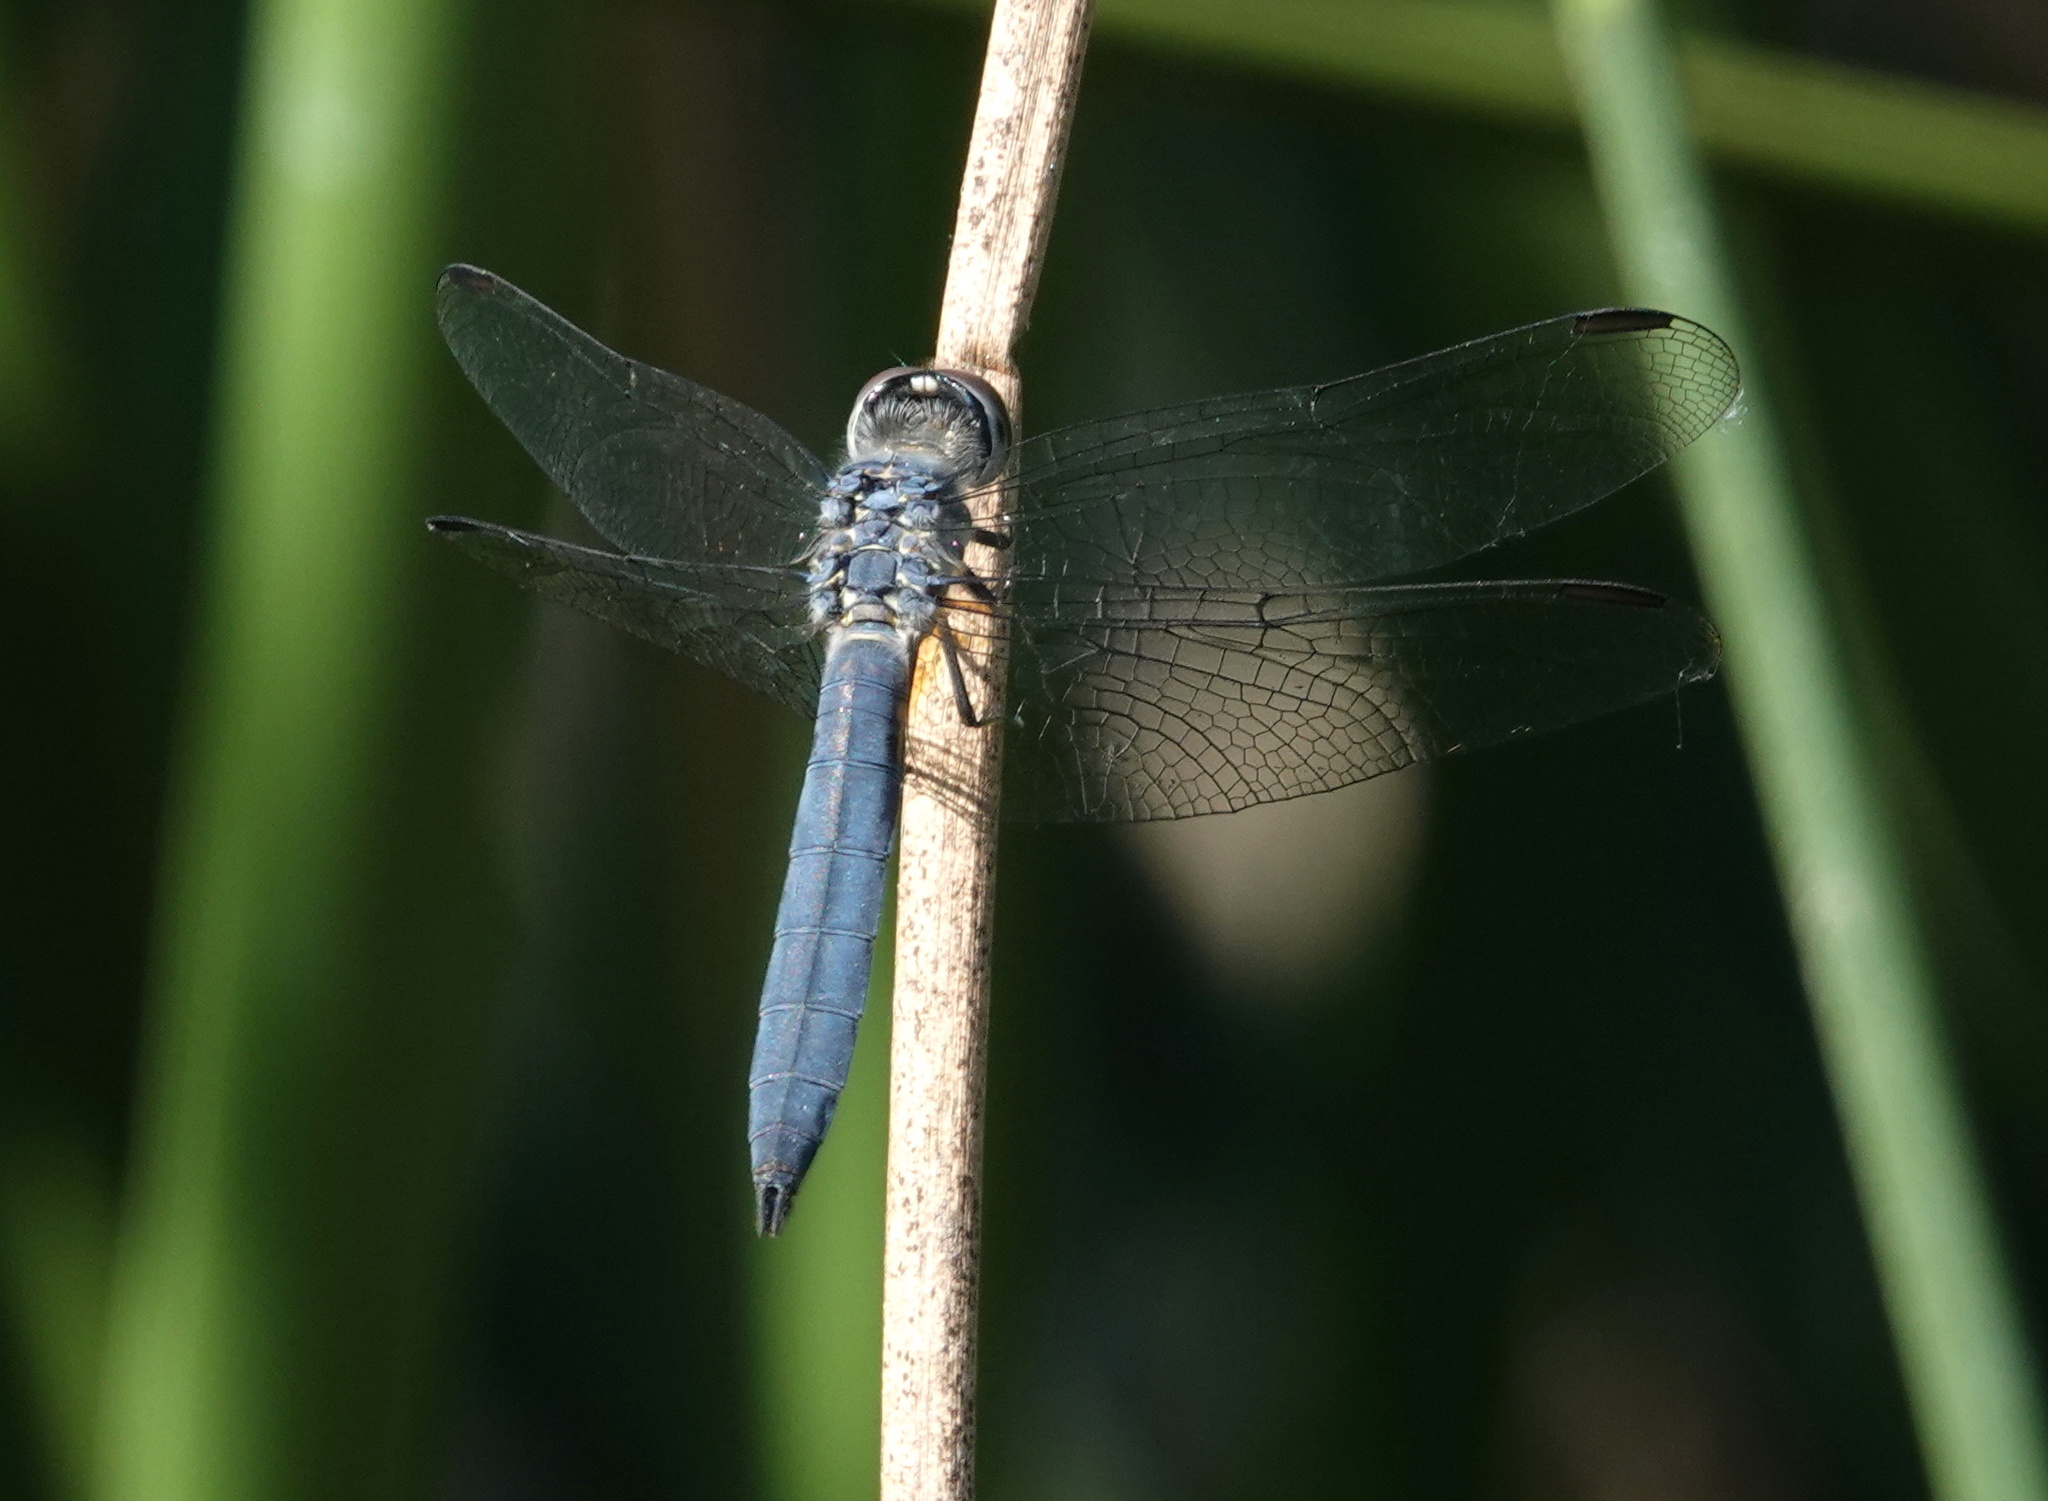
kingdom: Animalia
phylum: Arthropoda
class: Insecta
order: Odonata
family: Libellulidae
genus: Pachydiplax
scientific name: Pachydiplax longipennis
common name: Blue dasher
